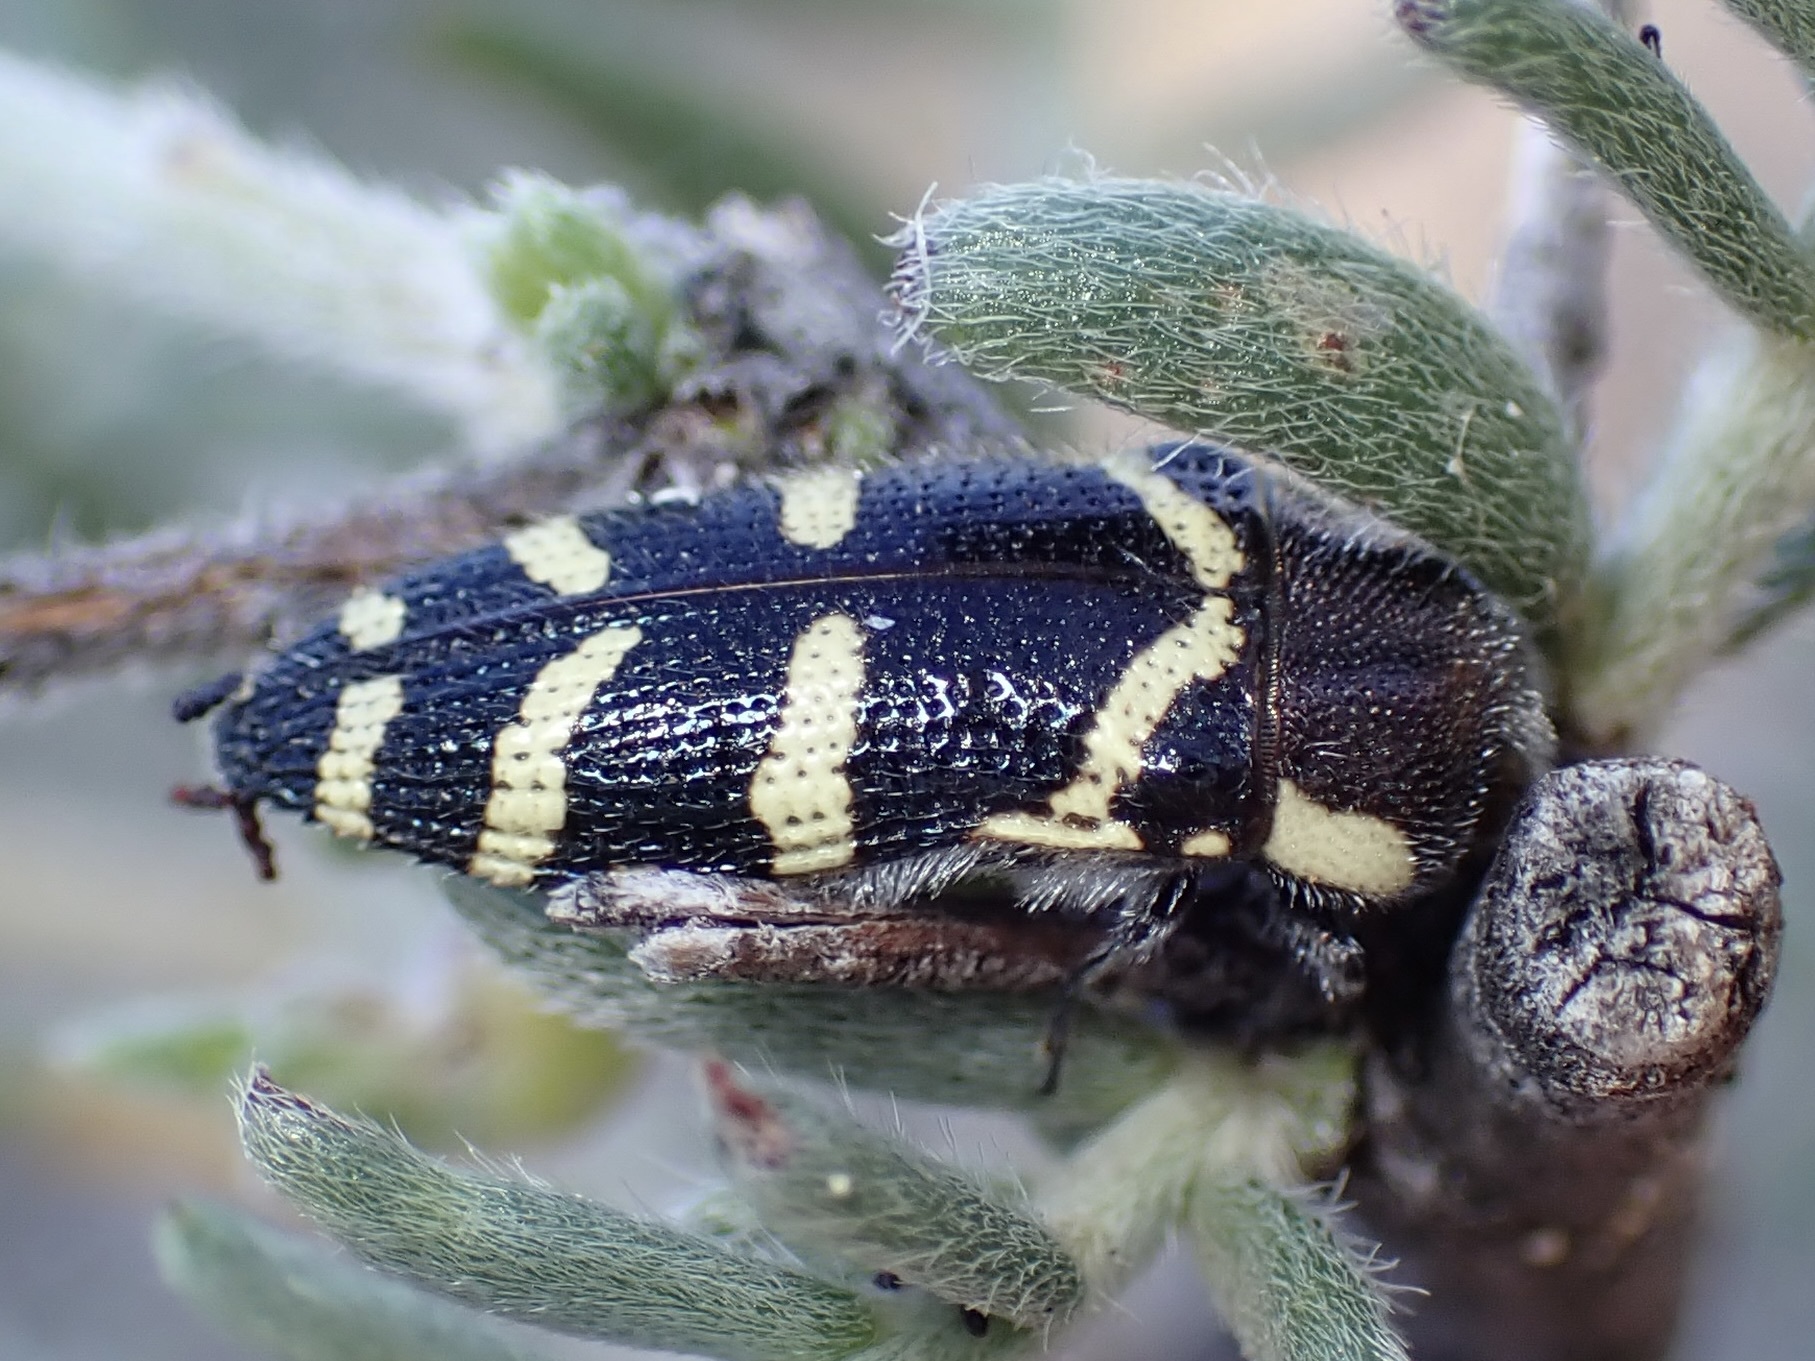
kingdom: Animalia
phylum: Arthropoda
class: Insecta
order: Coleoptera
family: Buprestidae
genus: Acmaeodera
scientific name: Acmaeodera convicta
